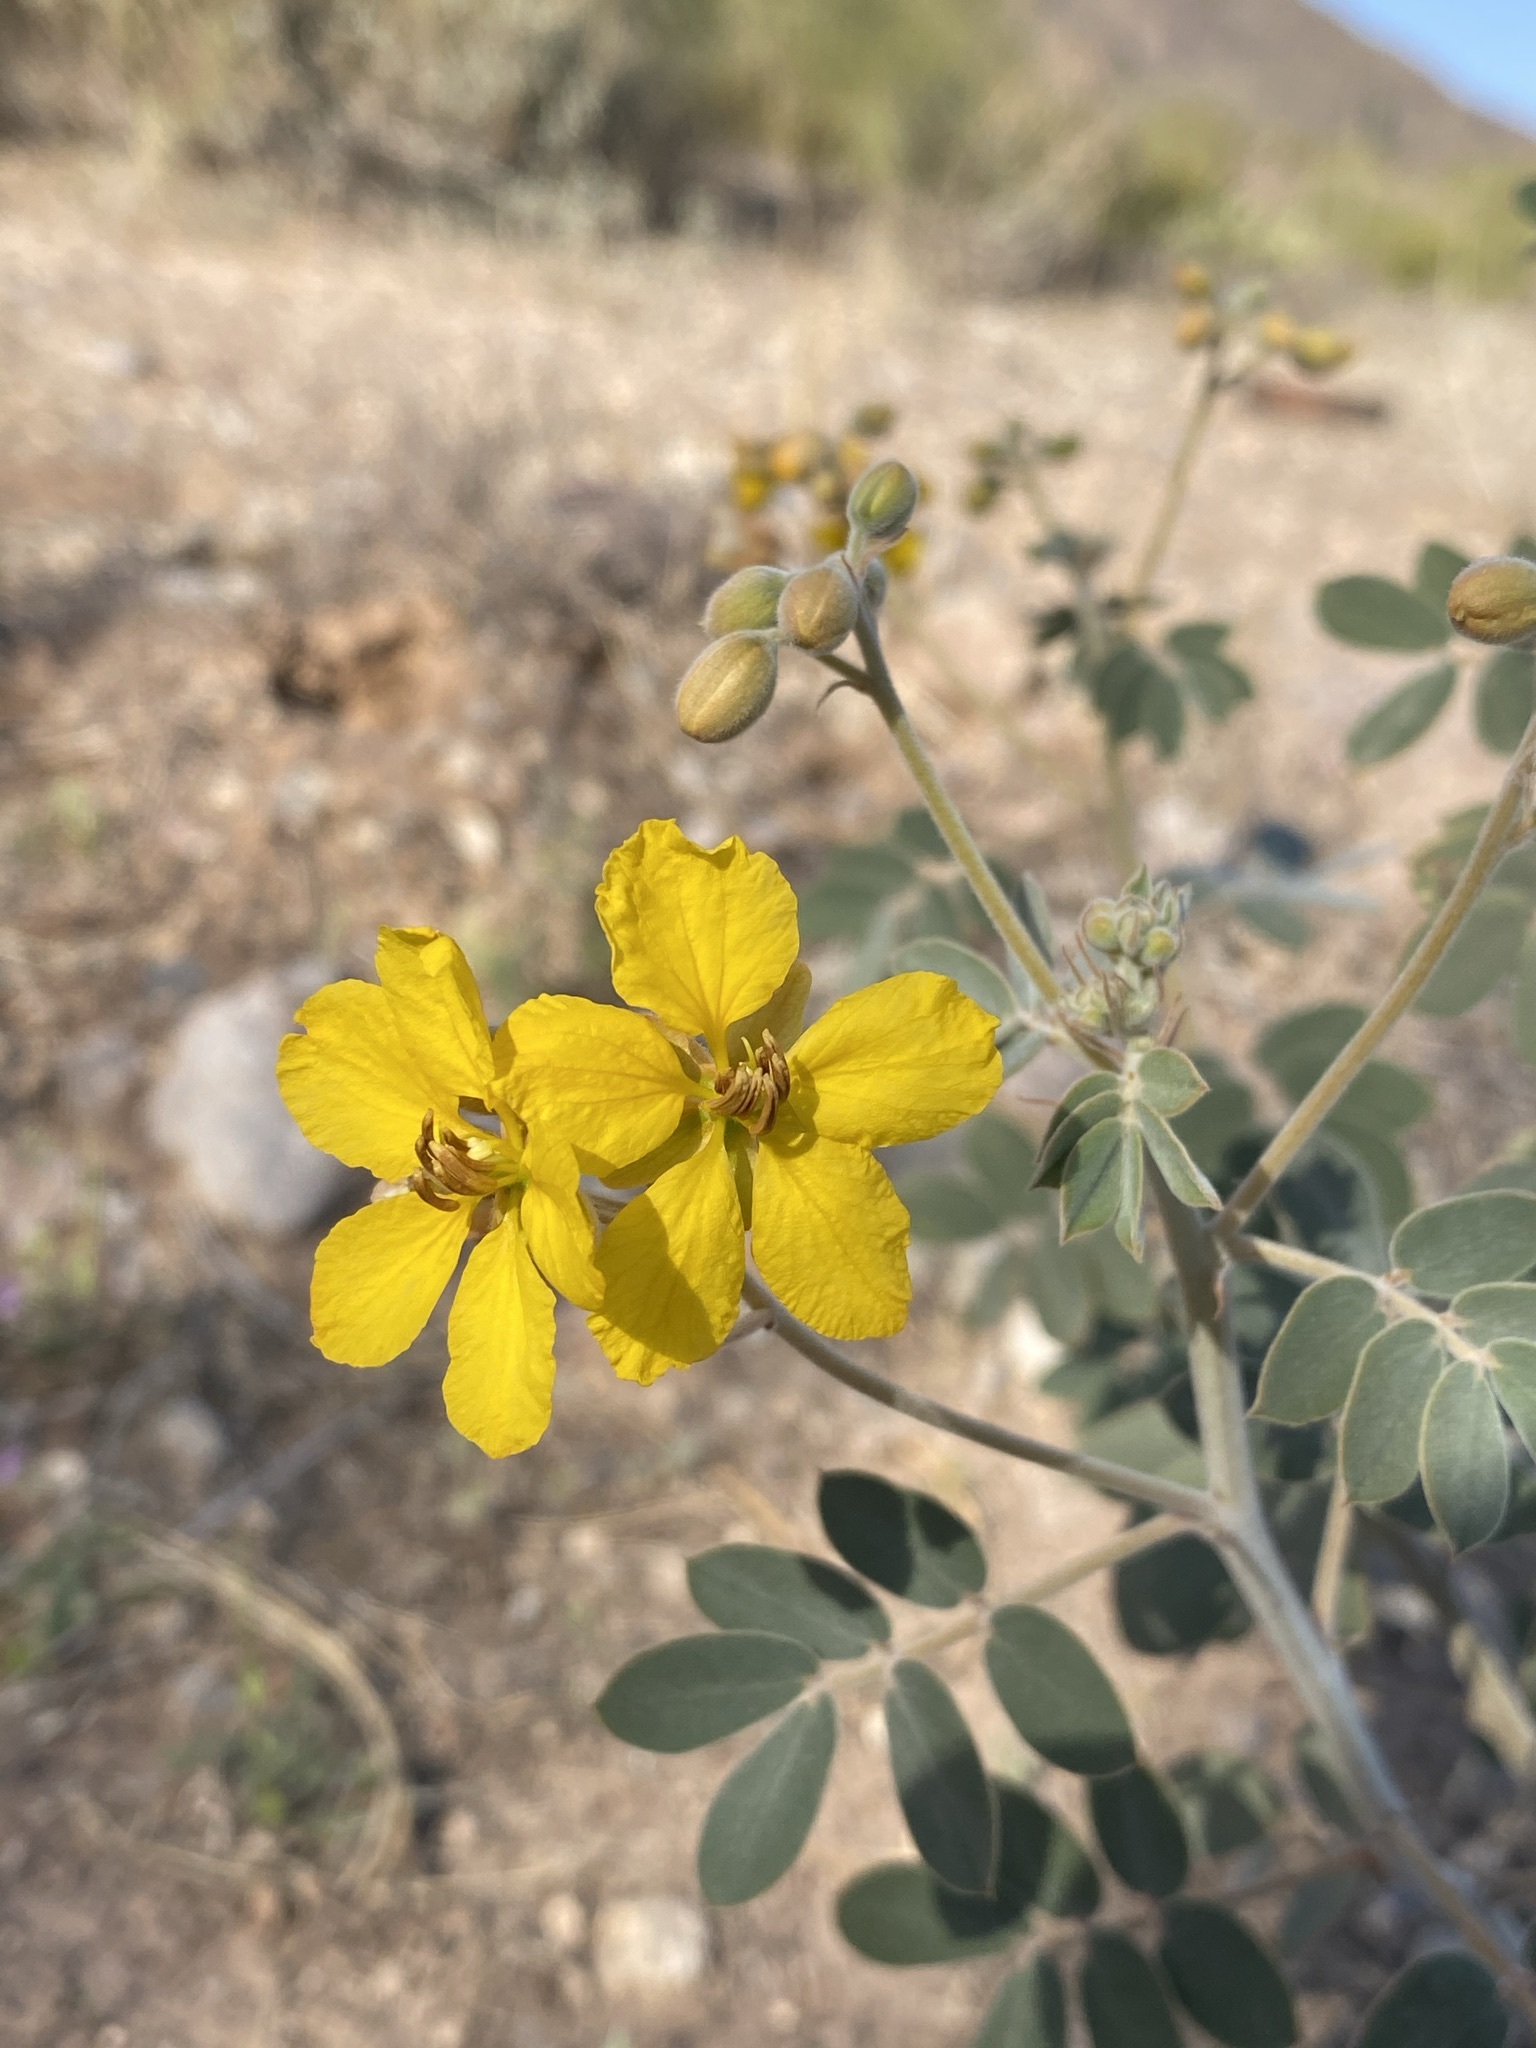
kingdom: Plantae
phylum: Tracheophyta
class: Magnoliopsida
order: Fabales
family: Fabaceae
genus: Senna
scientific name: Senna covesii
